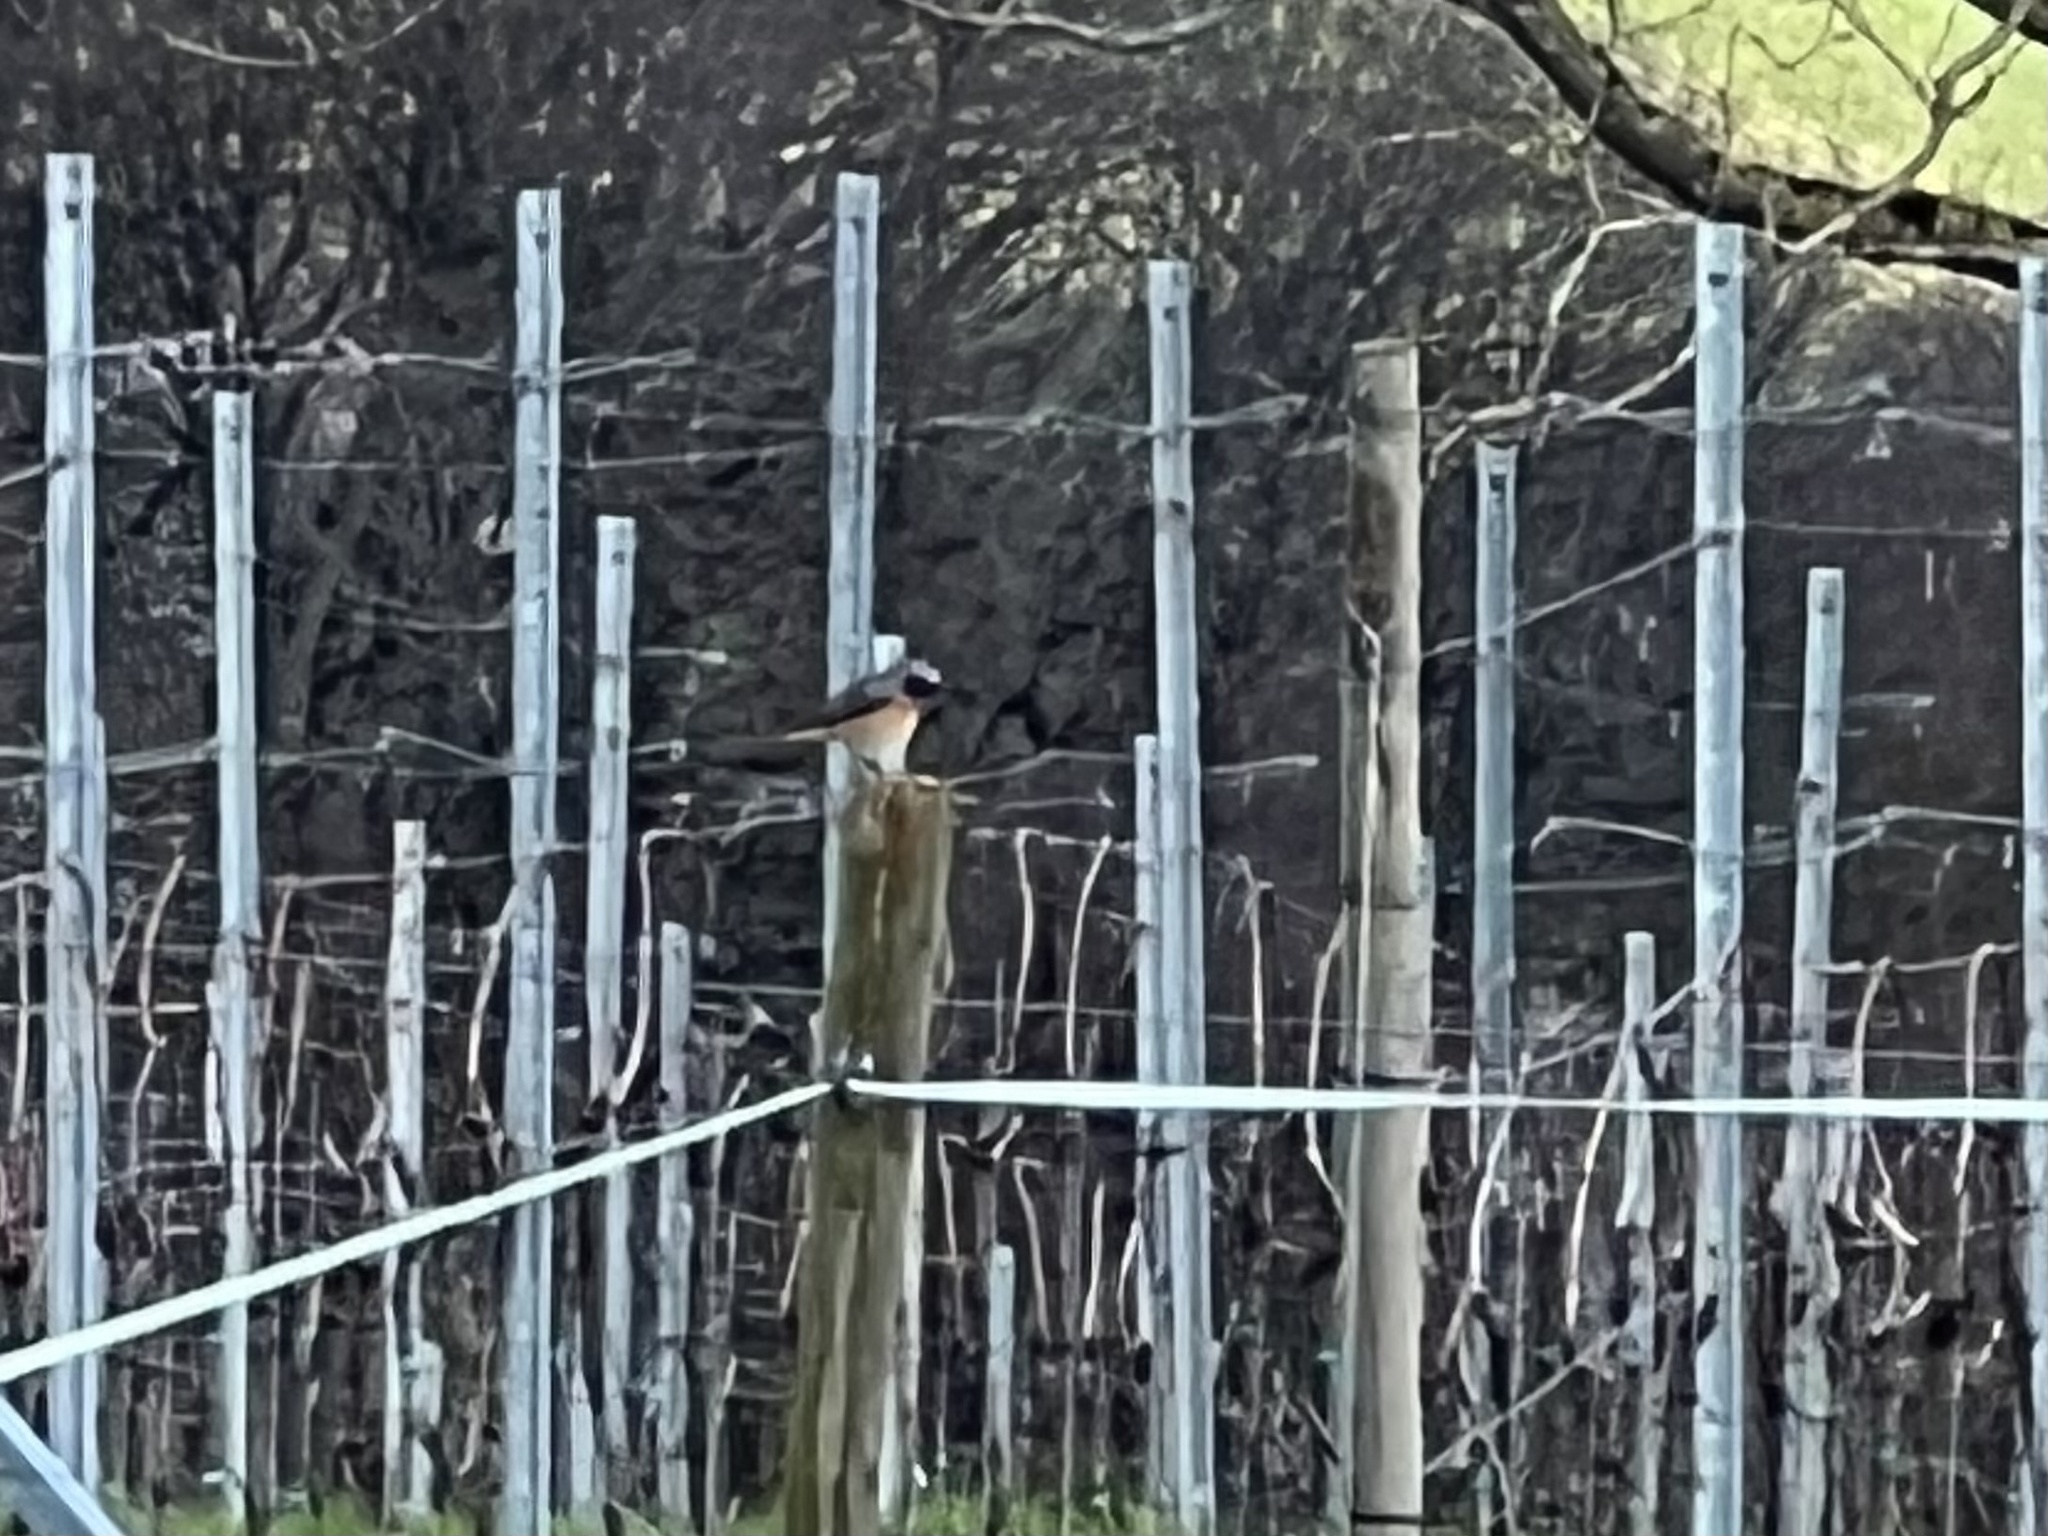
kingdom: Animalia
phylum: Chordata
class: Aves
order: Passeriformes
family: Muscicapidae
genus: Phoenicurus
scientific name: Phoenicurus phoenicurus
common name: Common redstart
